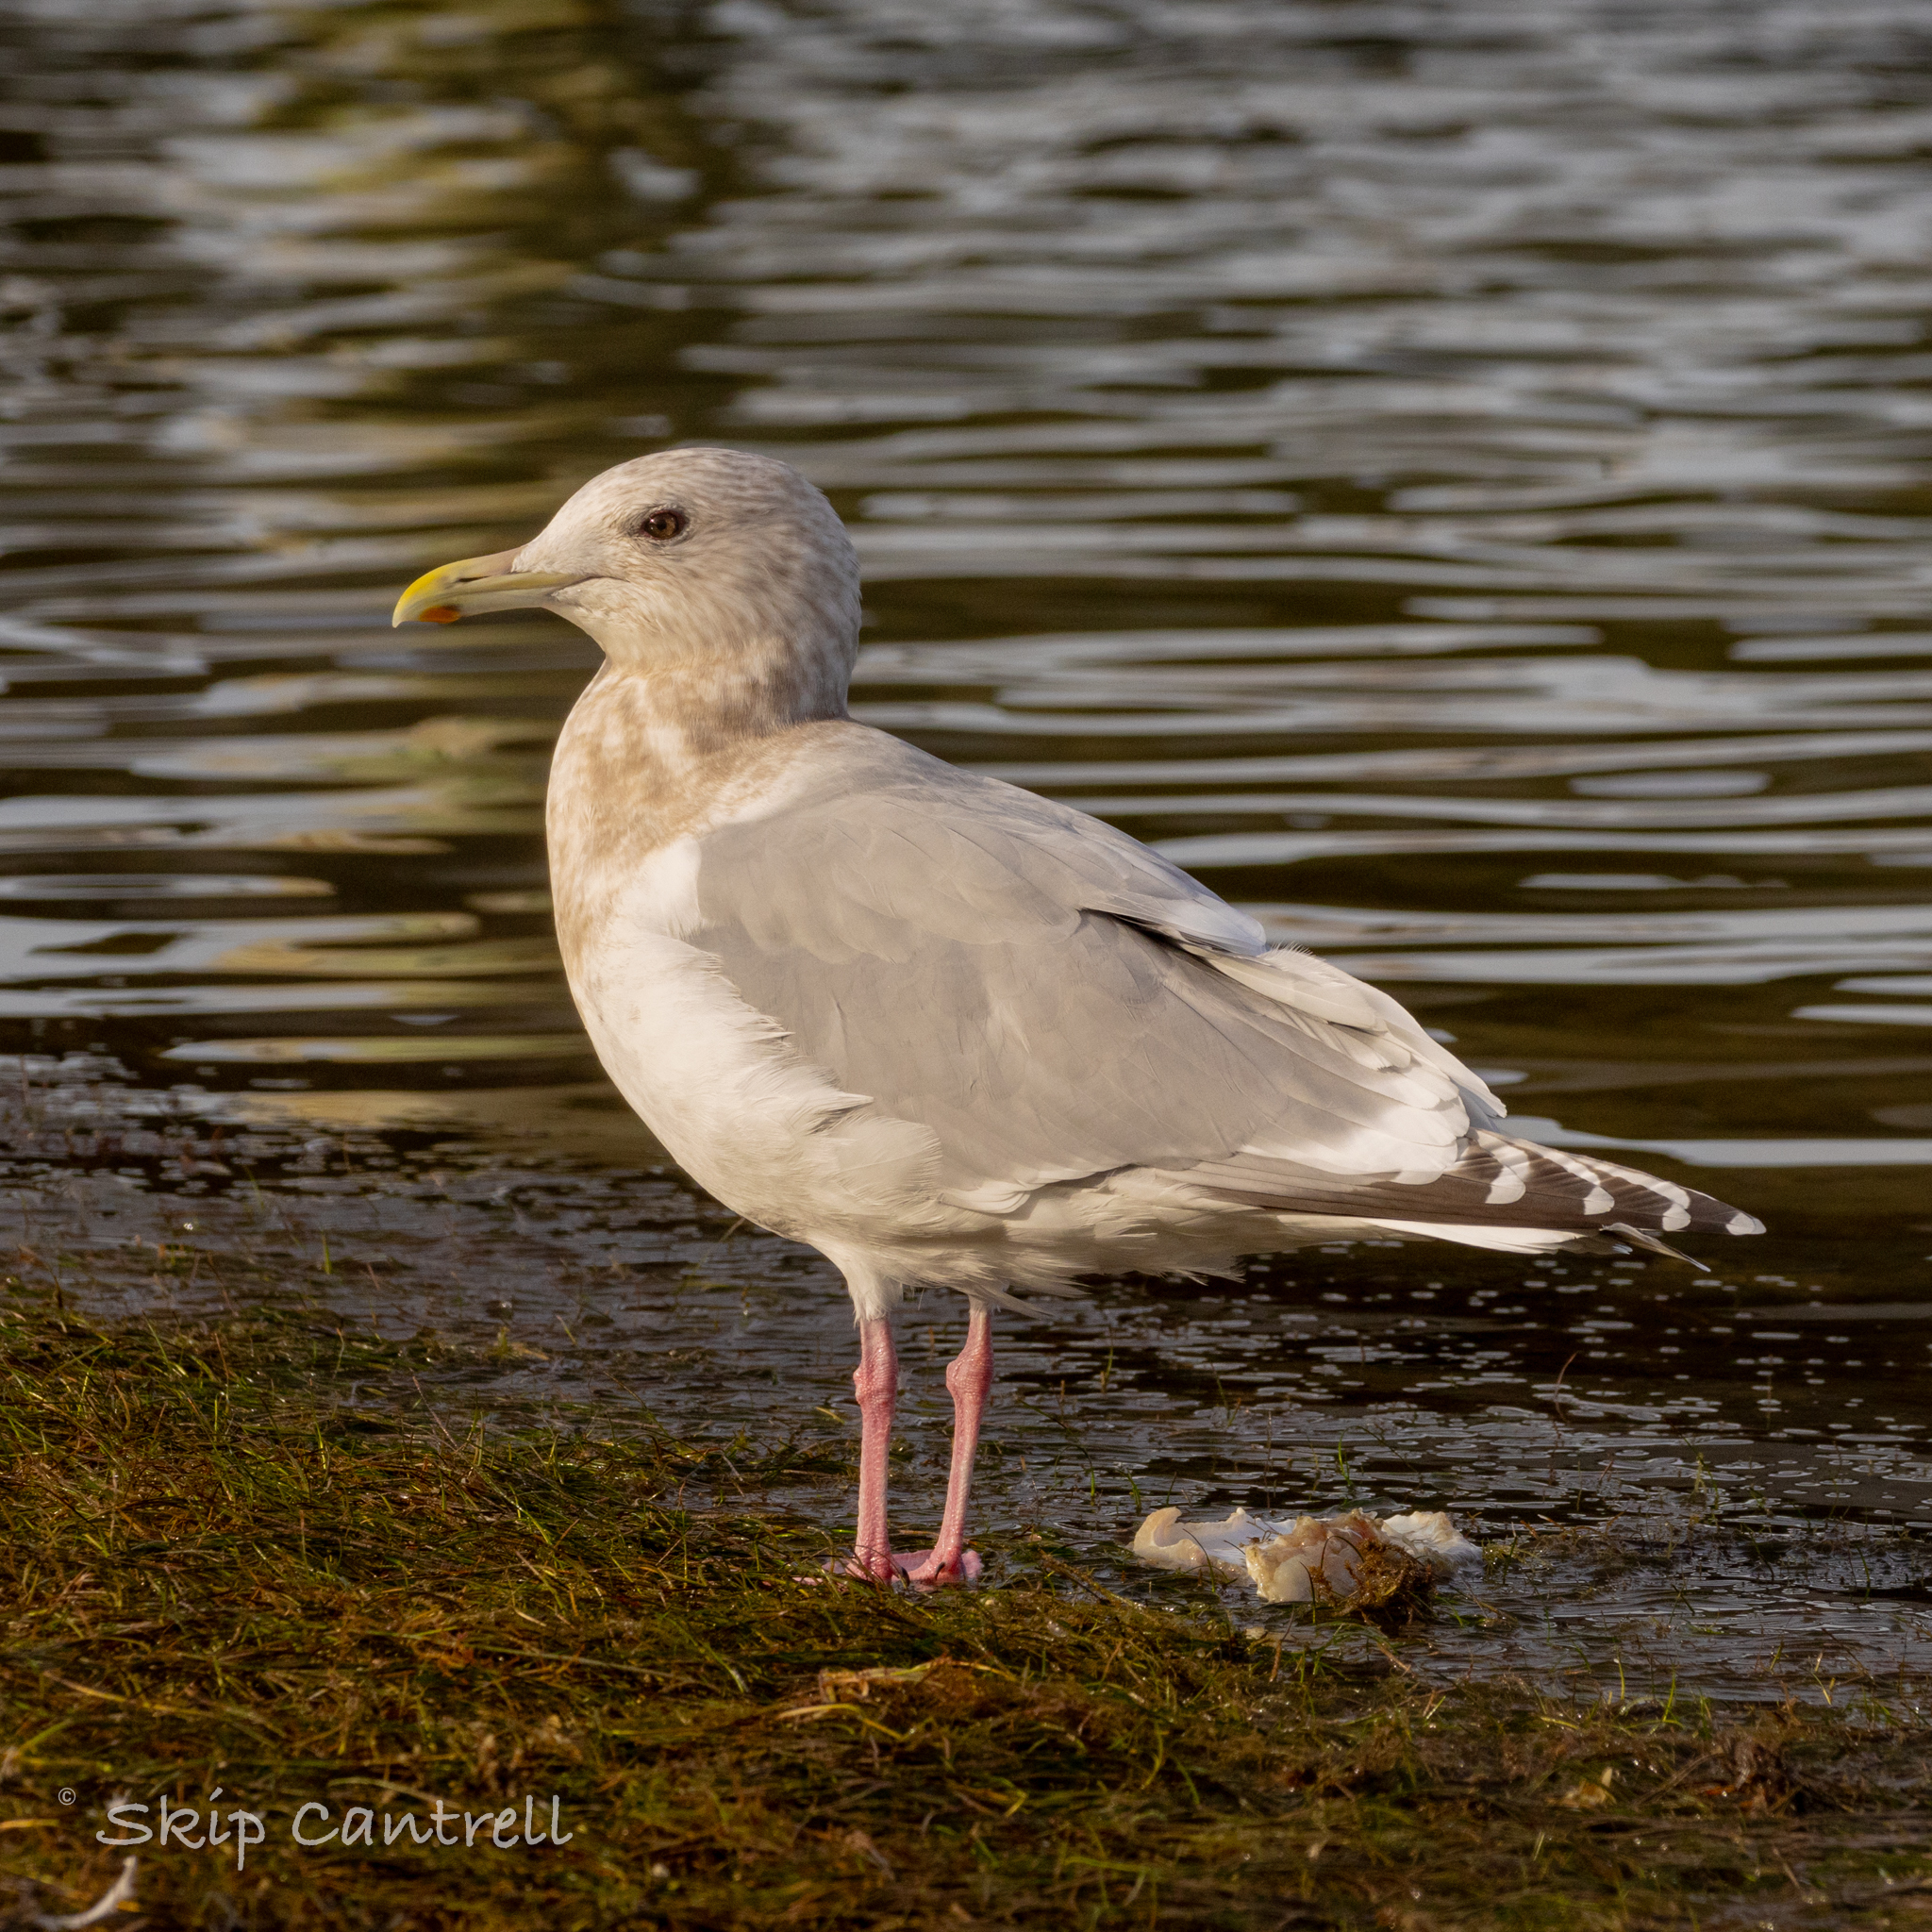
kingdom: Animalia
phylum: Chordata
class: Aves
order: Charadriiformes
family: Laridae
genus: Larus
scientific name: Larus glaucoides
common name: Iceland gull
